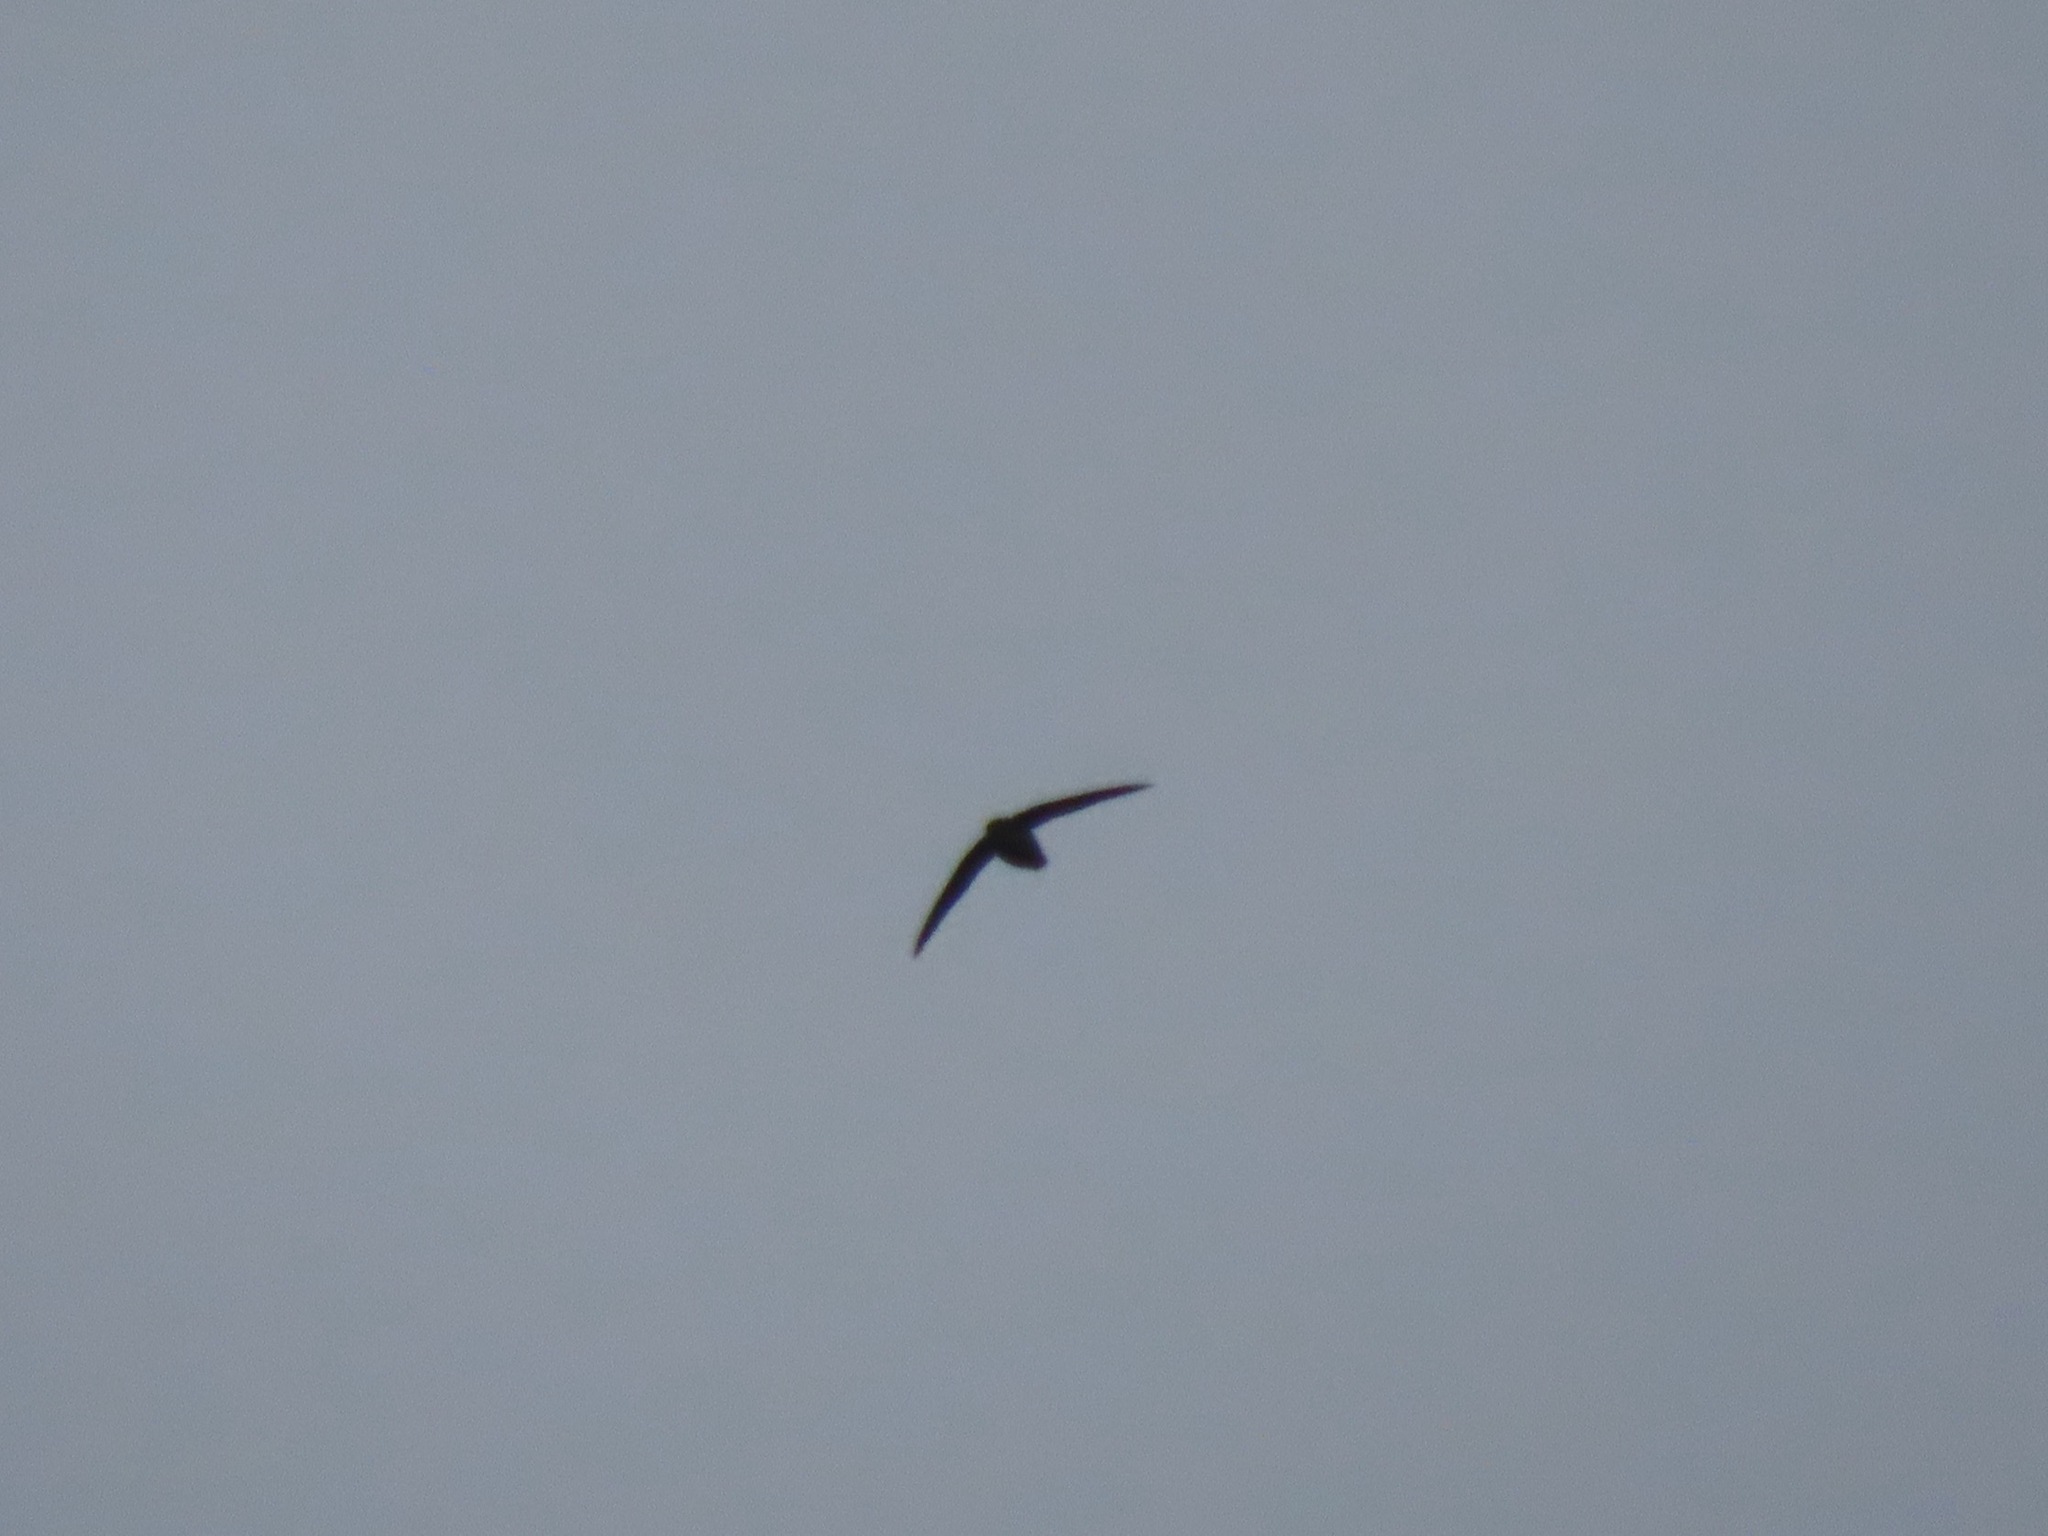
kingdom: Animalia
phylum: Chordata
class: Aves
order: Apodiformes
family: Apodidae
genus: Chaetura
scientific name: Chaetura vauxi
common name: Vaux's swift
